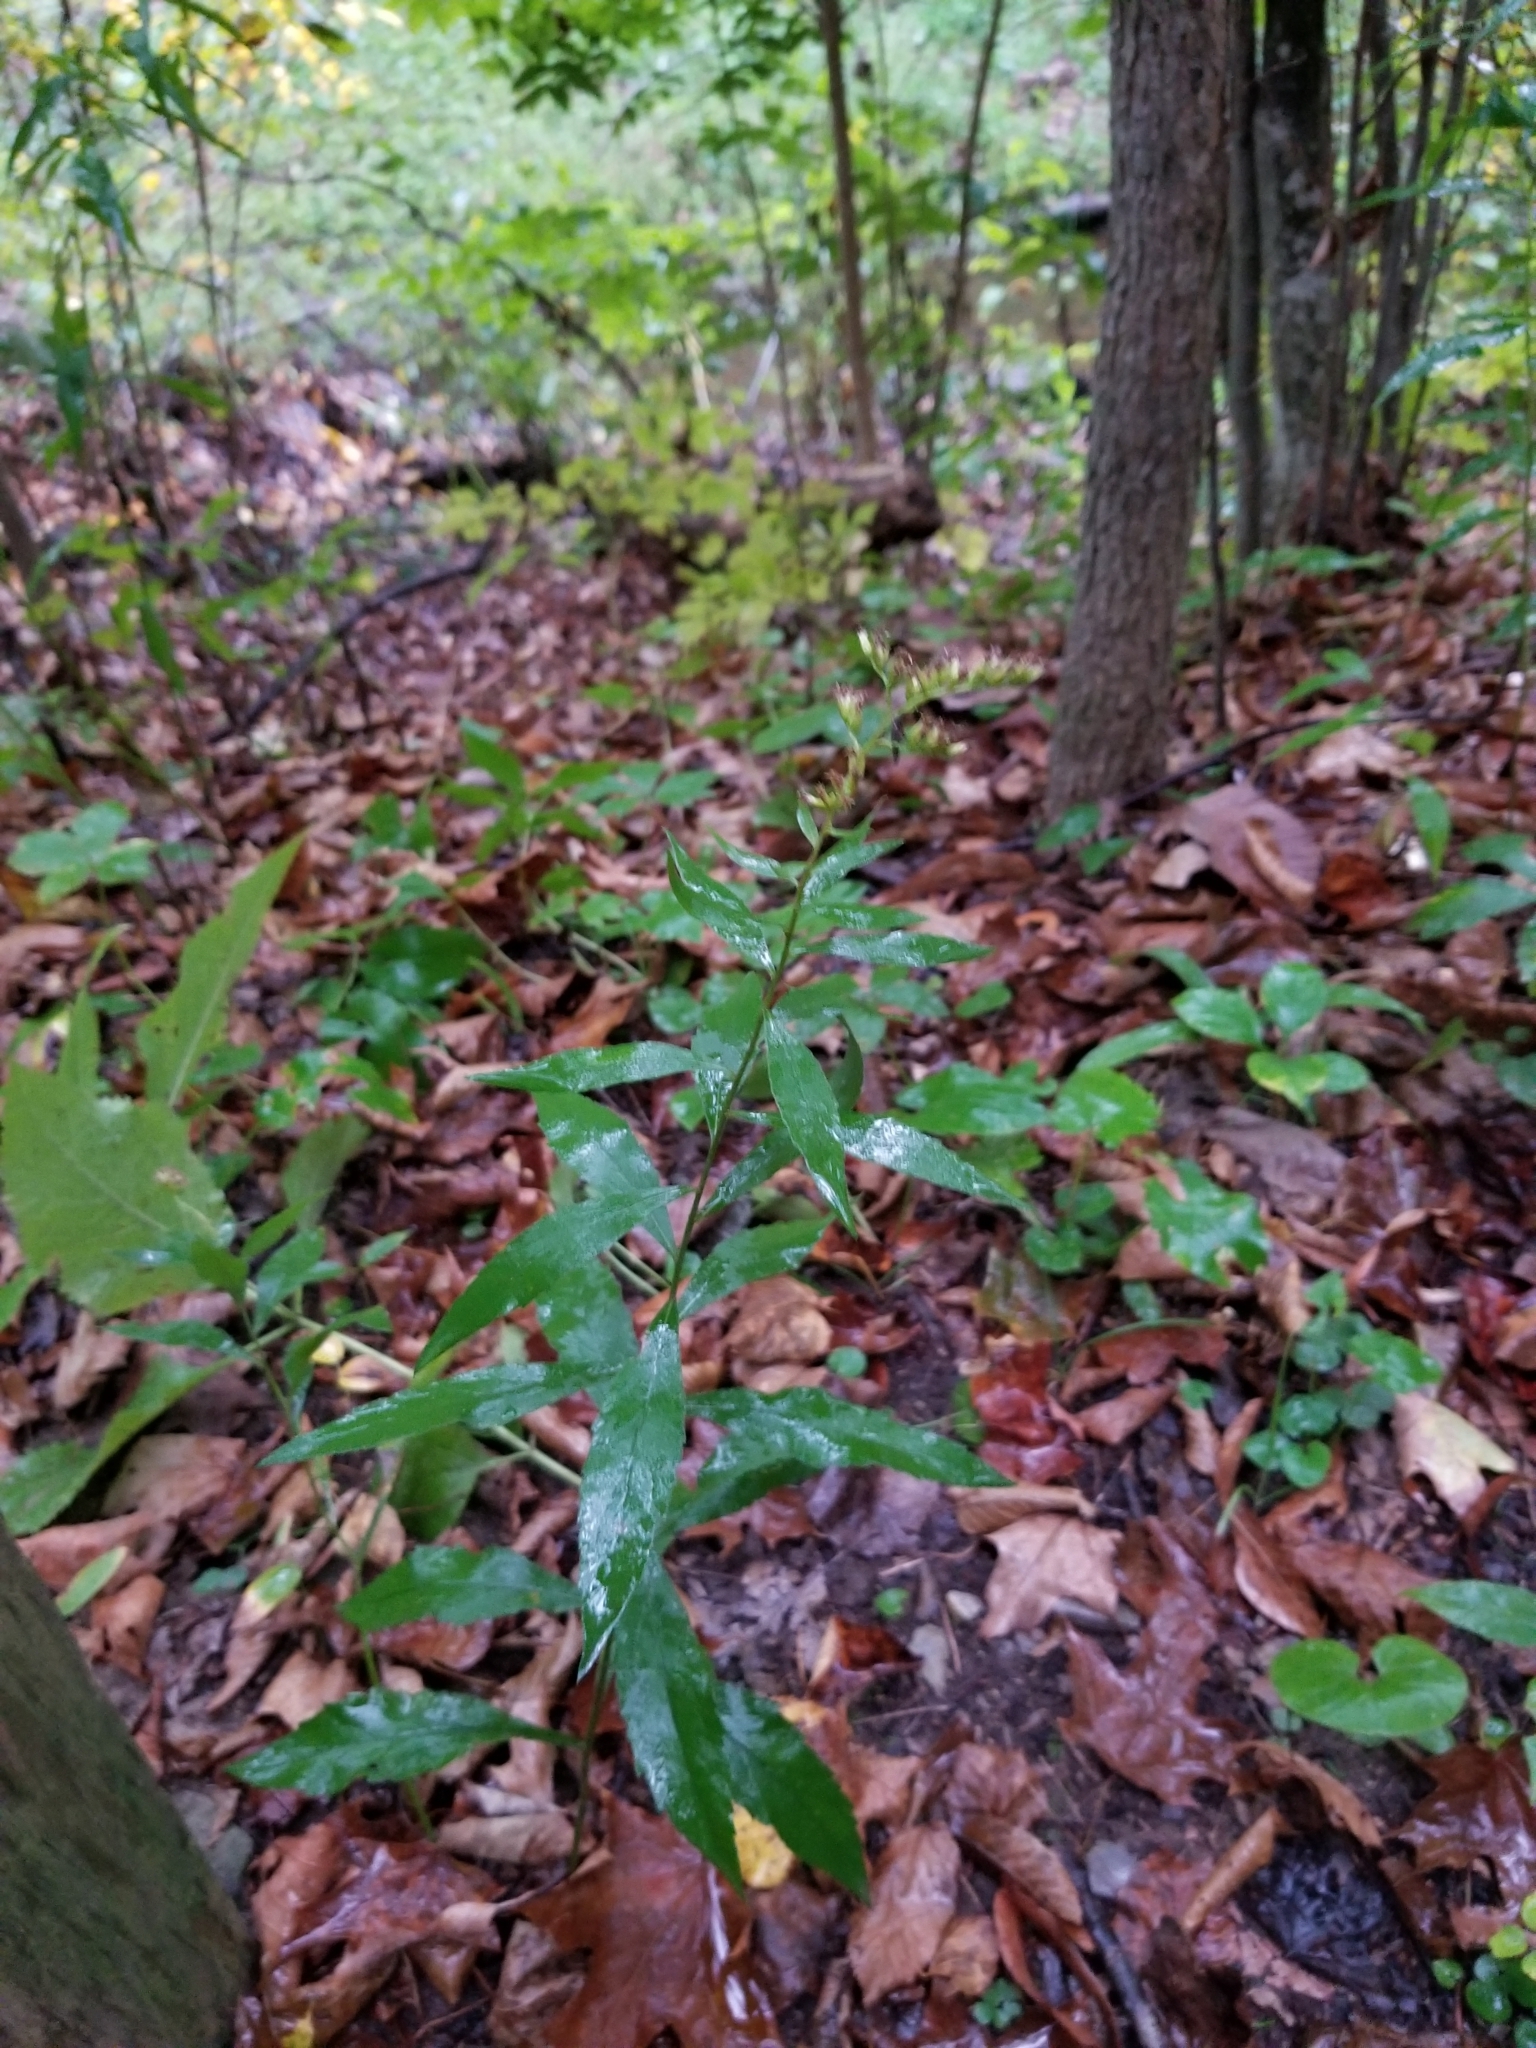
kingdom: Plantae
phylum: Tracheophyta
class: Magnoliopsida
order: Asterales
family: Asteraceae
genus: Solidago
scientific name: Solidago ulmifolia
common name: Elm-leaf goldenrod
